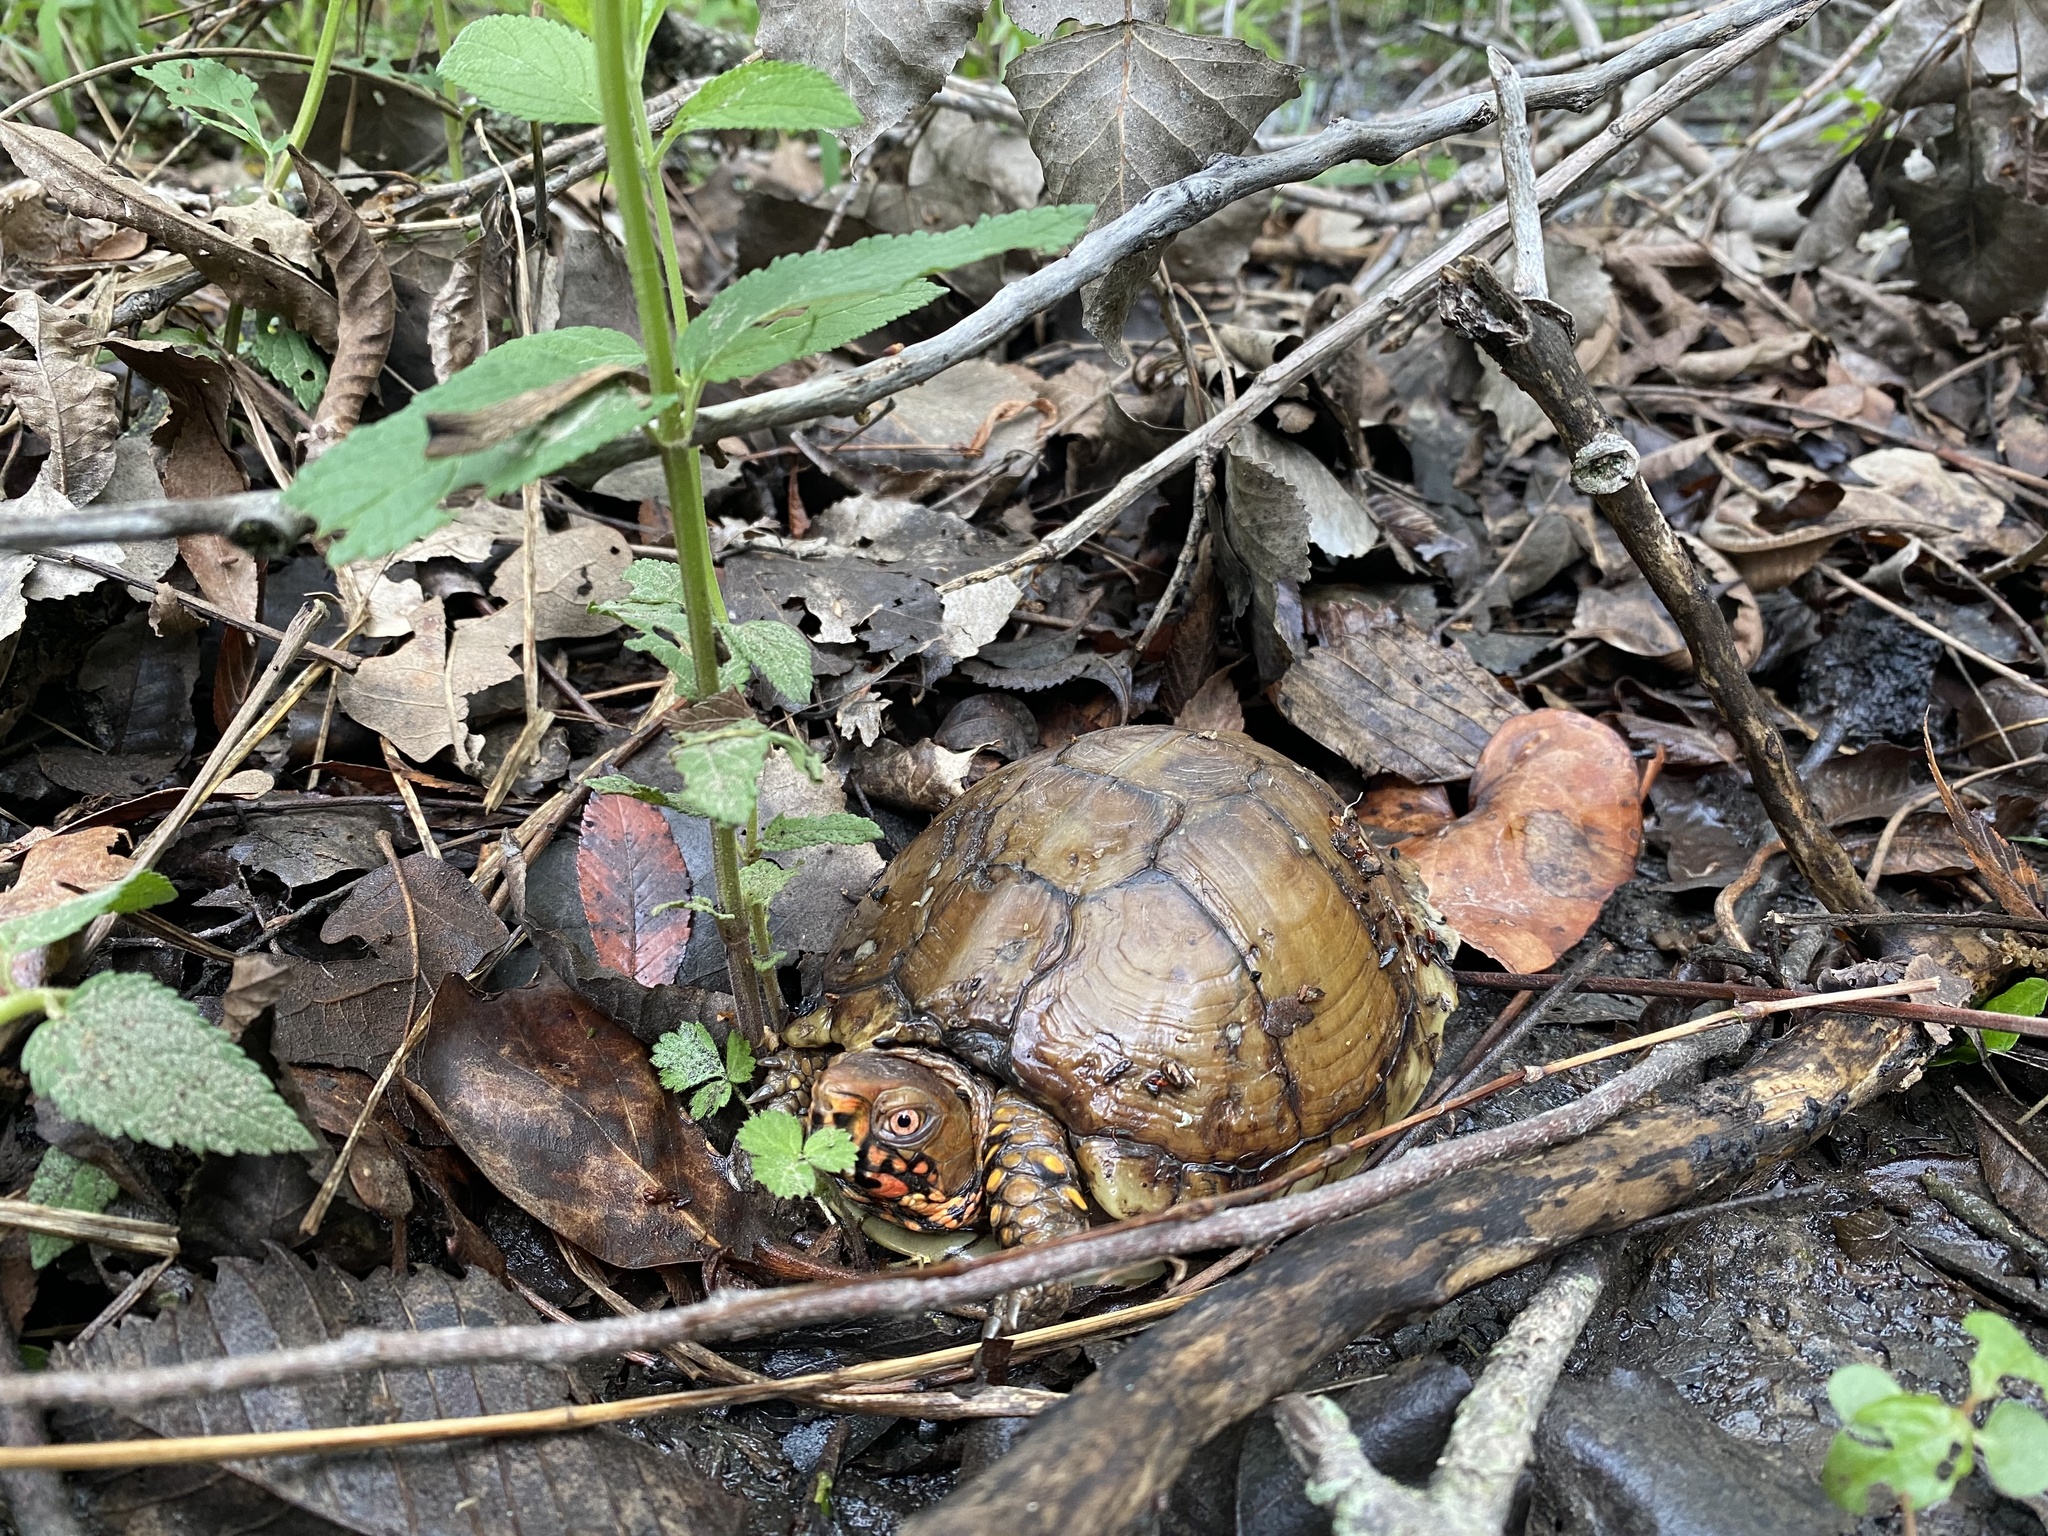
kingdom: Animalia
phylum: Chordata
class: Testudines
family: Emydidae
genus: Terrapene
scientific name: Terrapene carolina
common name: Common box turtle
